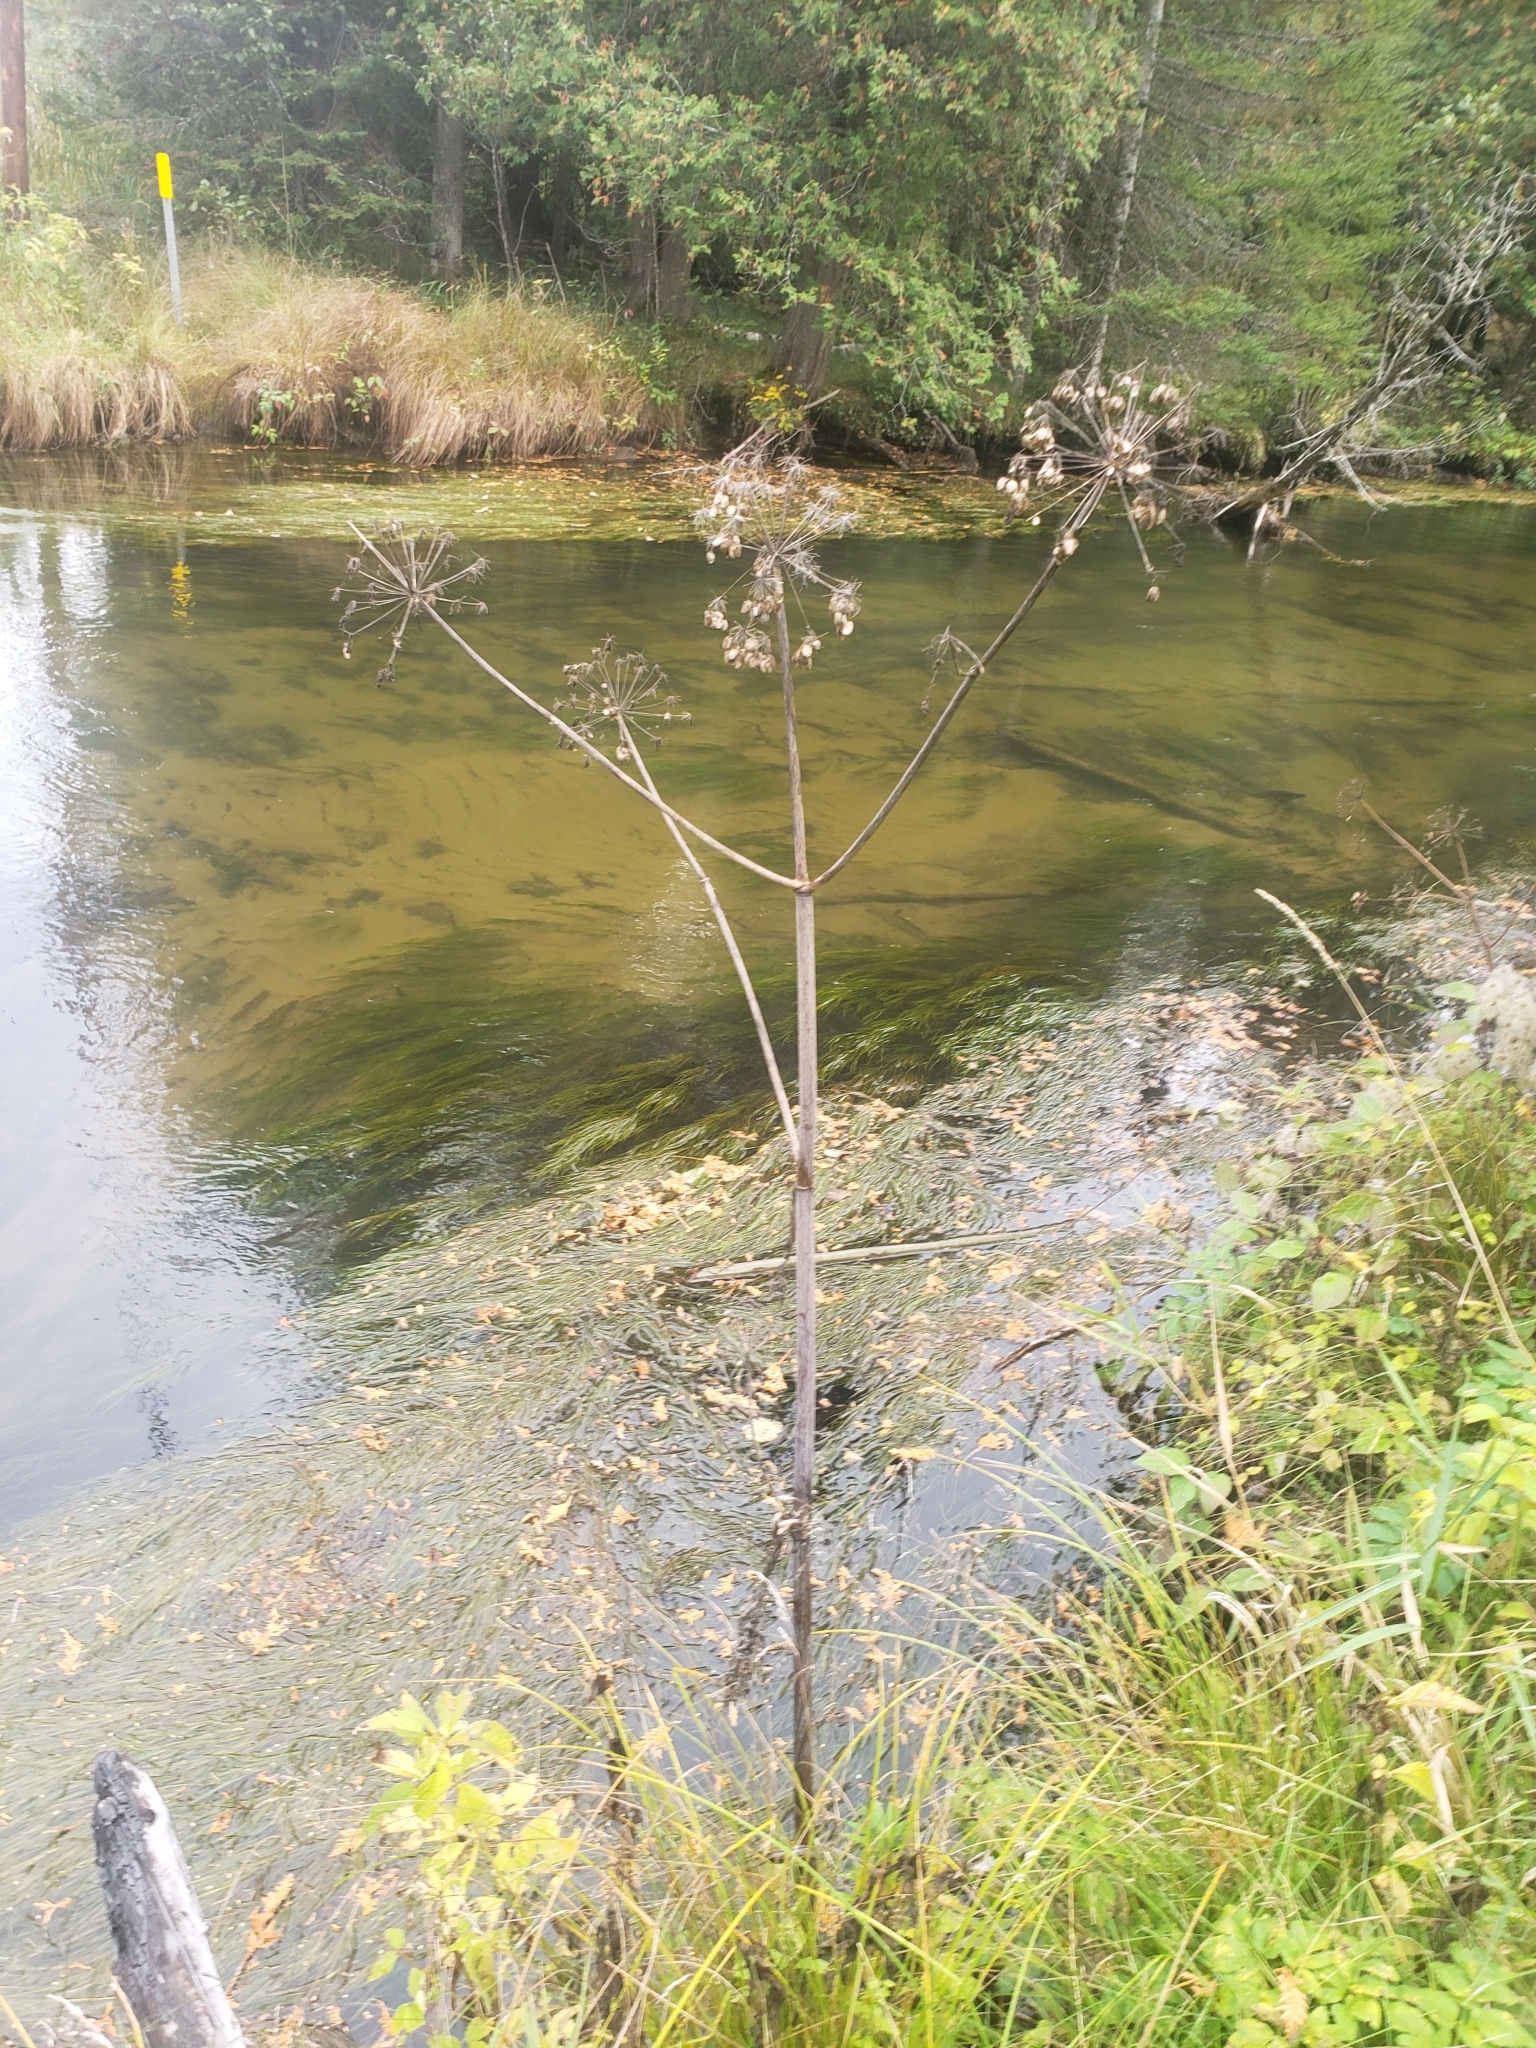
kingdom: Plantae
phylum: Tracheophyta
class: Magnoliopsida
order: Apiales
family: Apiaceae
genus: Angelica
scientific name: Angelica atropurpurea
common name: Great angelica
